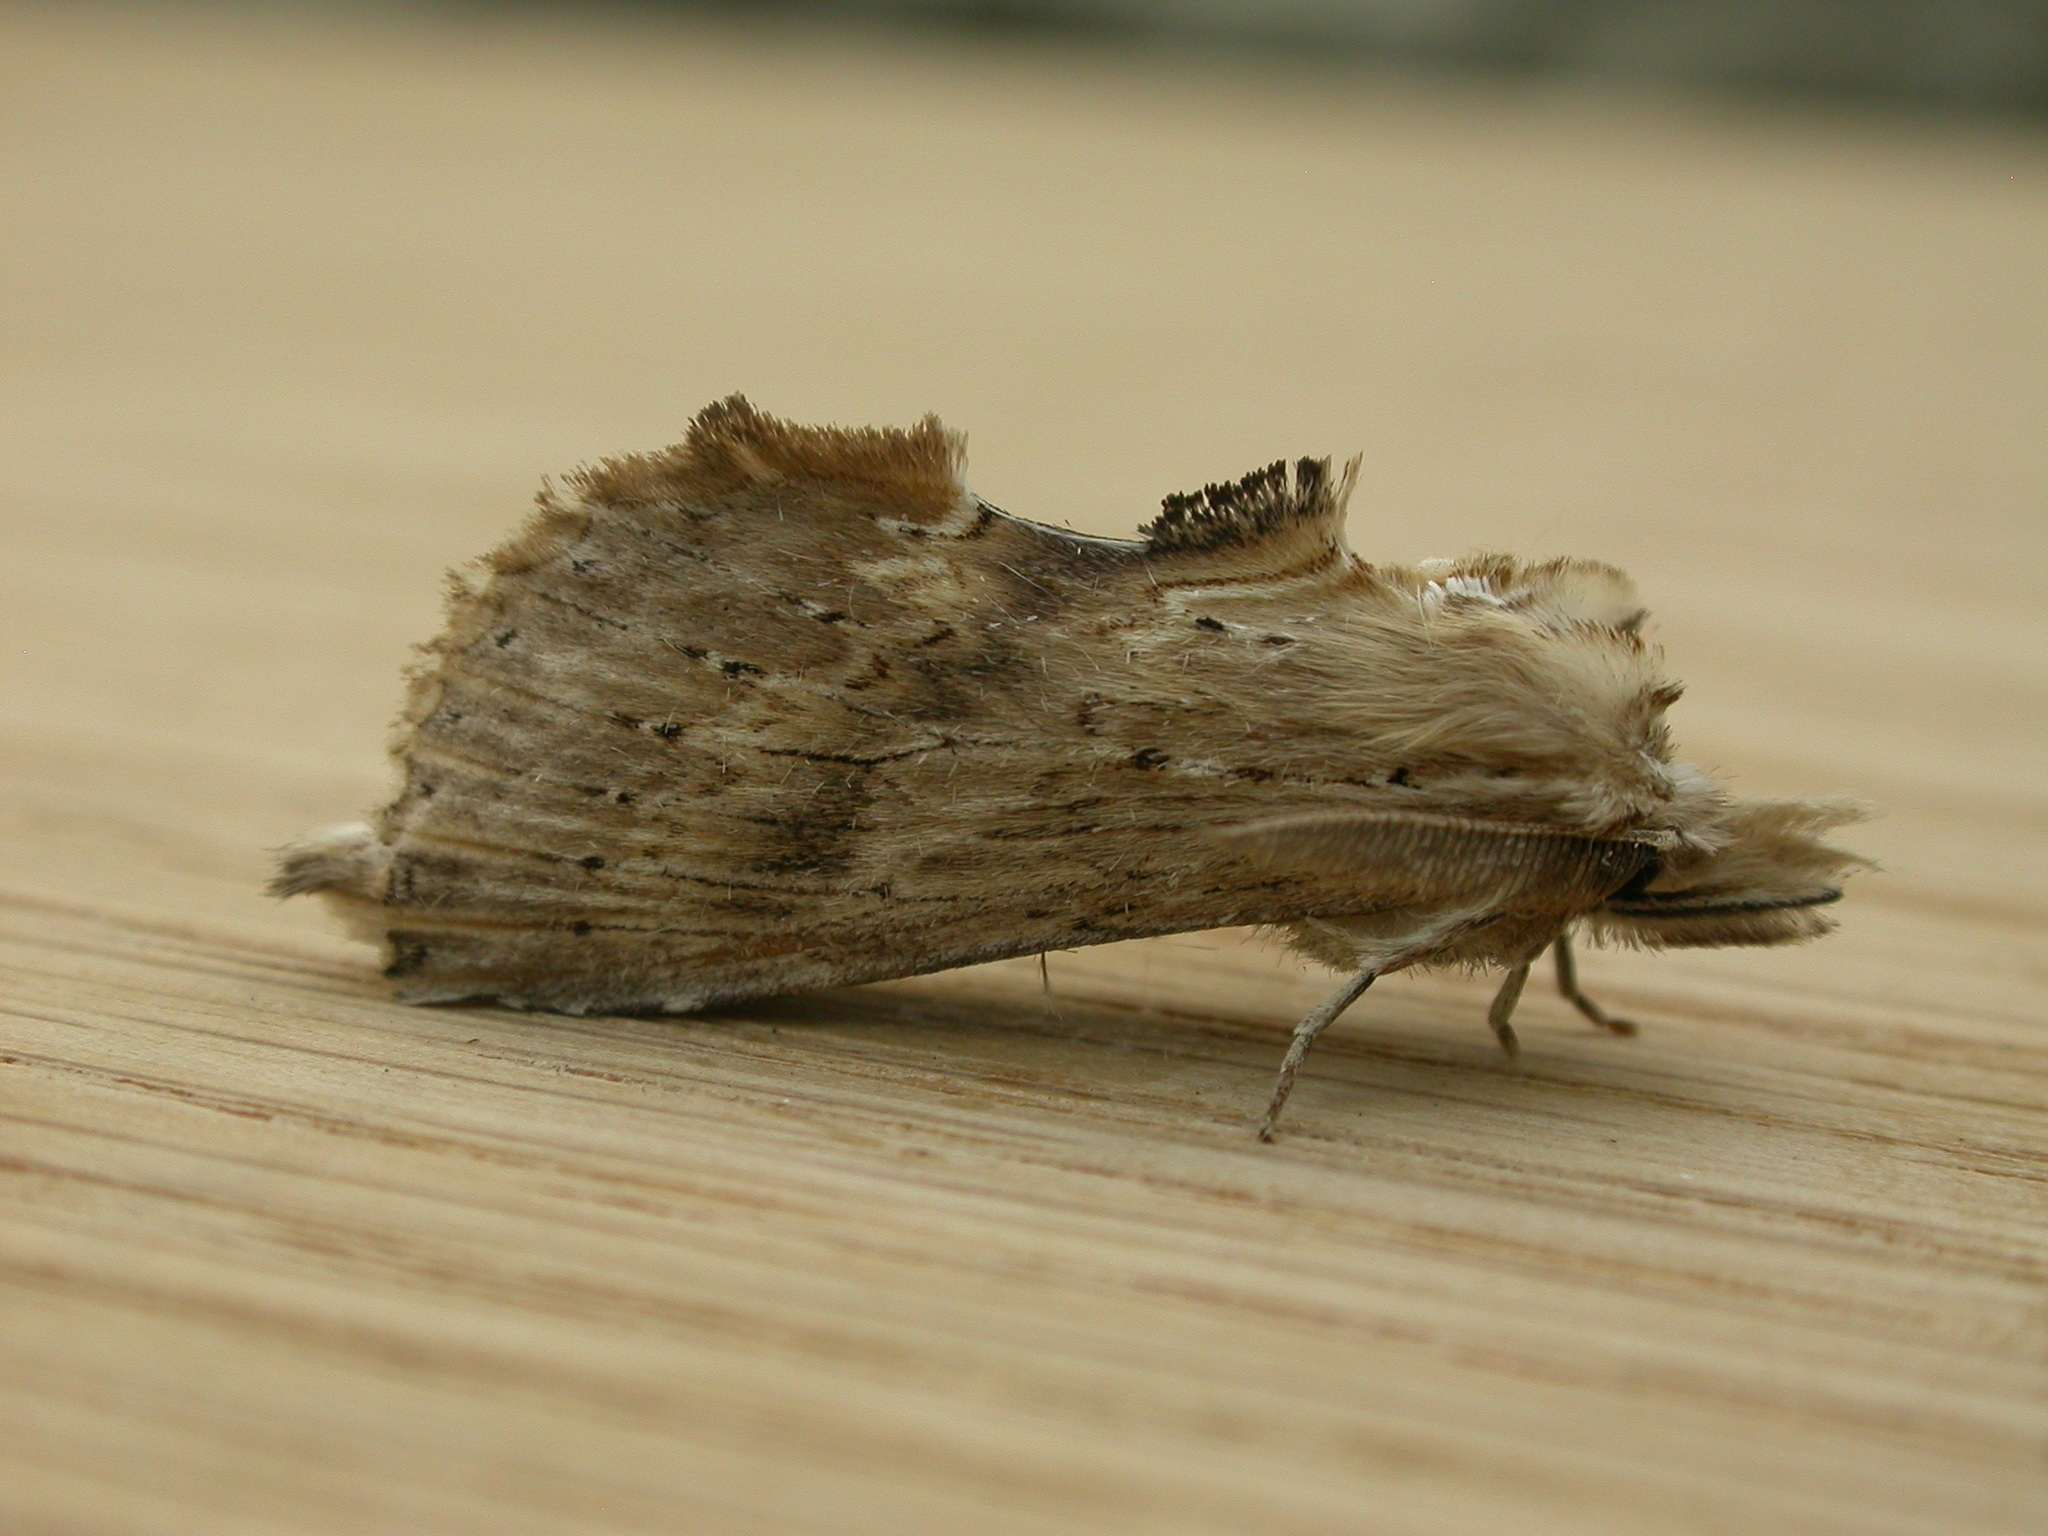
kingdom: Animalia
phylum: Arthropoda
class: Insecta
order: Lepidoptera
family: Notodontidae
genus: Pterostoma
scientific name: Pterostoma palpina
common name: Pale prominent
